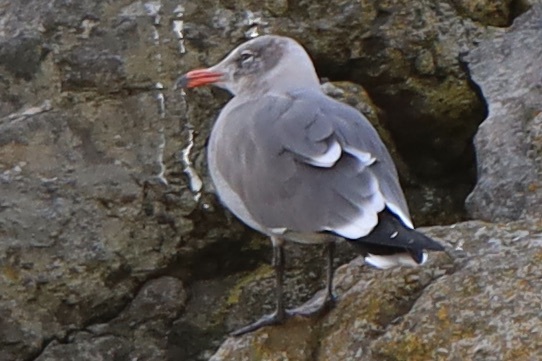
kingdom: Animalia
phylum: Chordata
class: Aves
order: Charadriiformes
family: Laridae
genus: Larus
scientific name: Larus heermanni
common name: Heermann's gull
